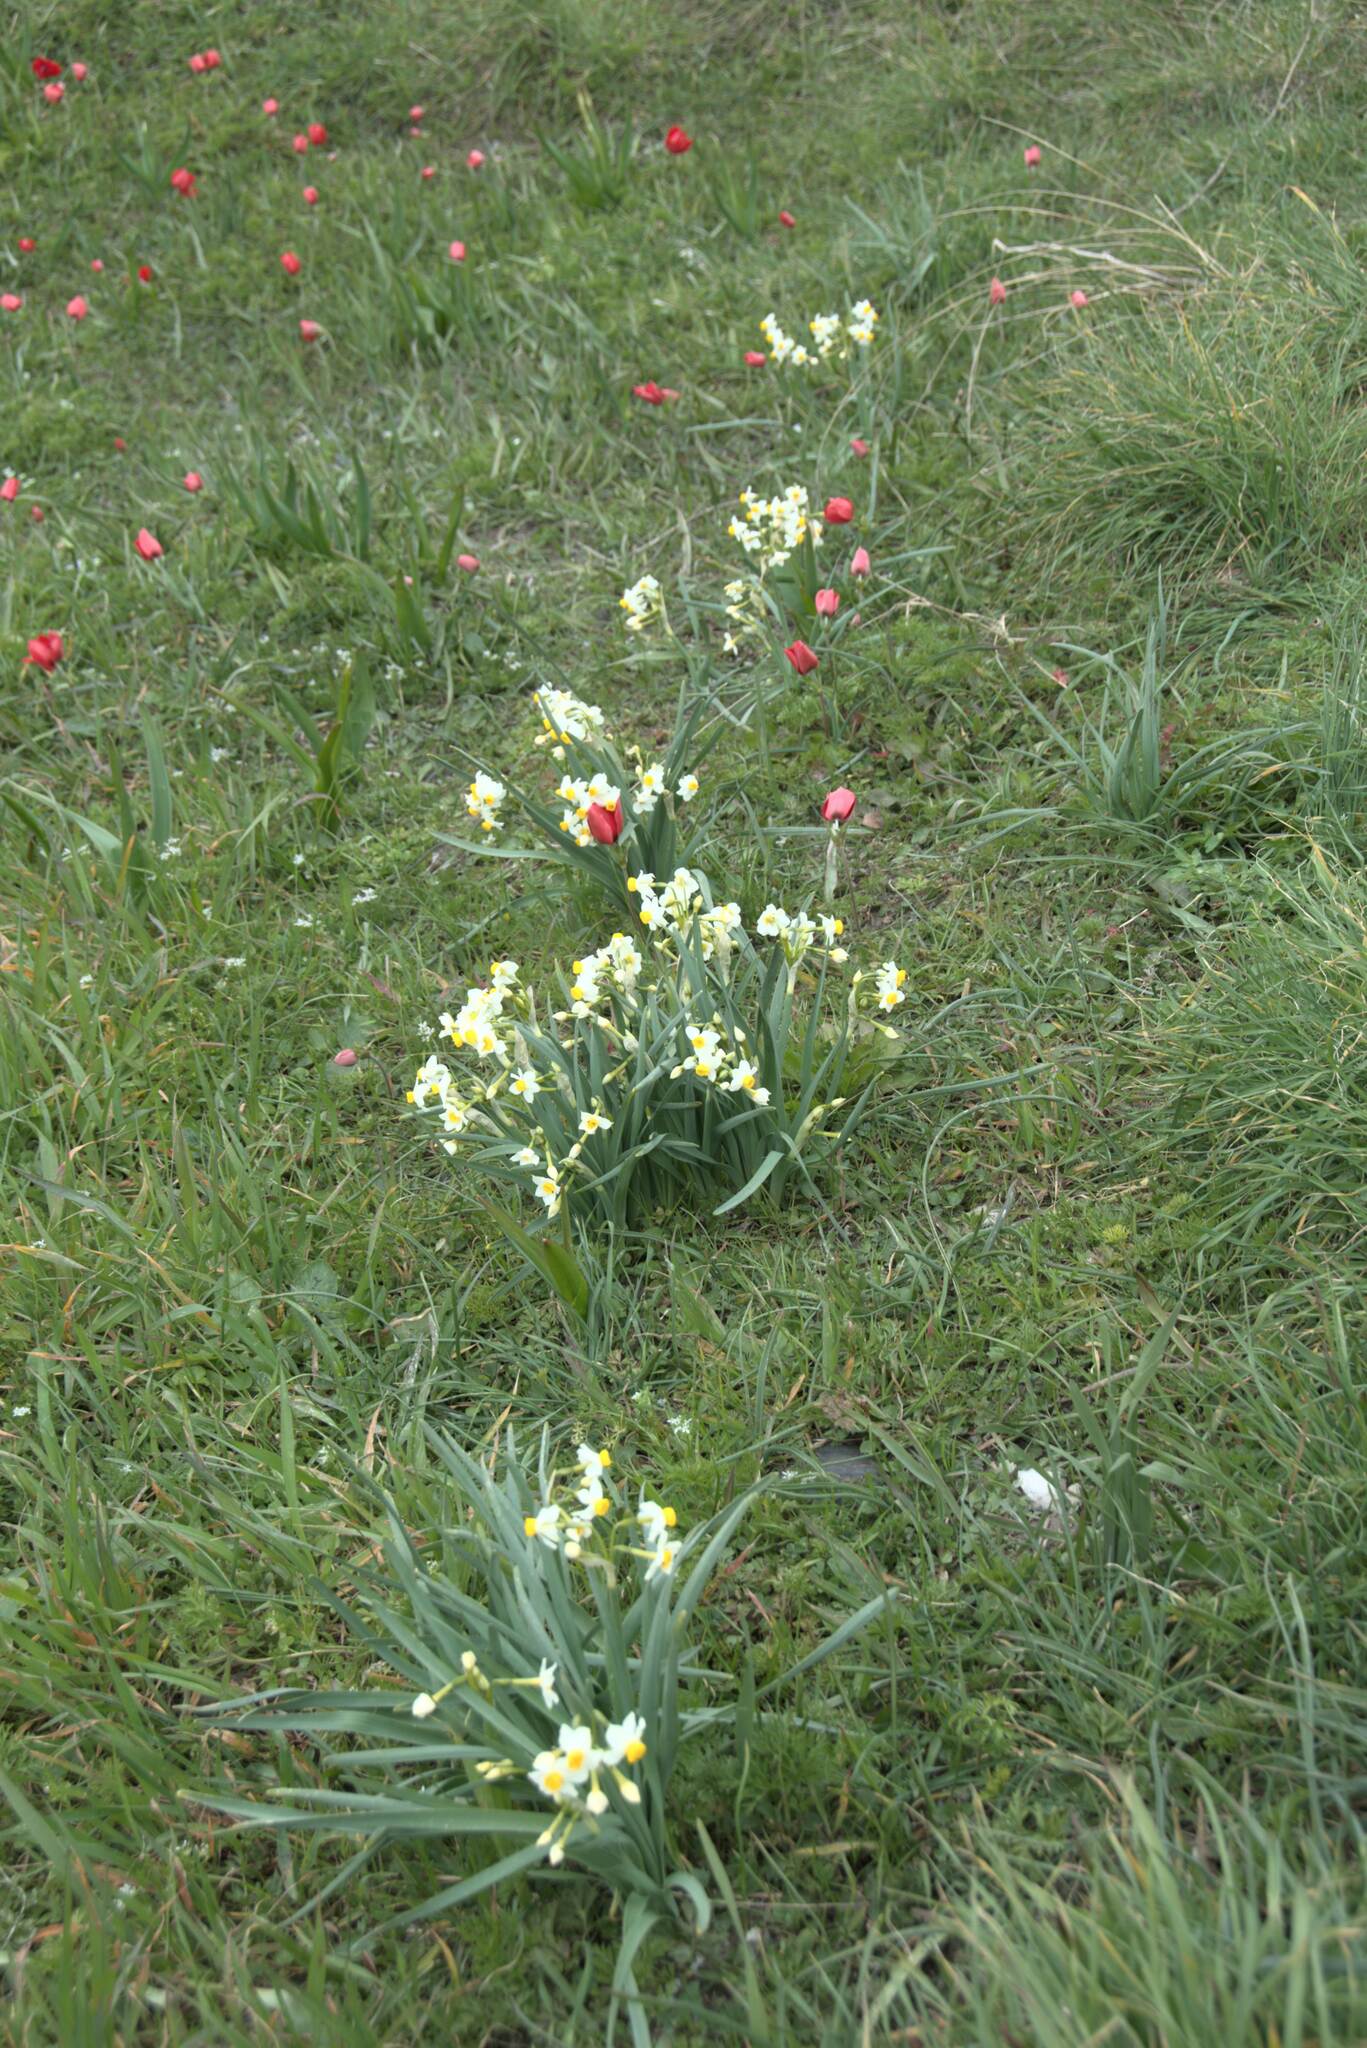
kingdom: Plantae
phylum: Tracheophyta
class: Liliopsida
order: Asparagales
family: Amaryllidaceae
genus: Narcissus
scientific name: Narcissus tazetta
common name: Bunch-flowered daffodil
